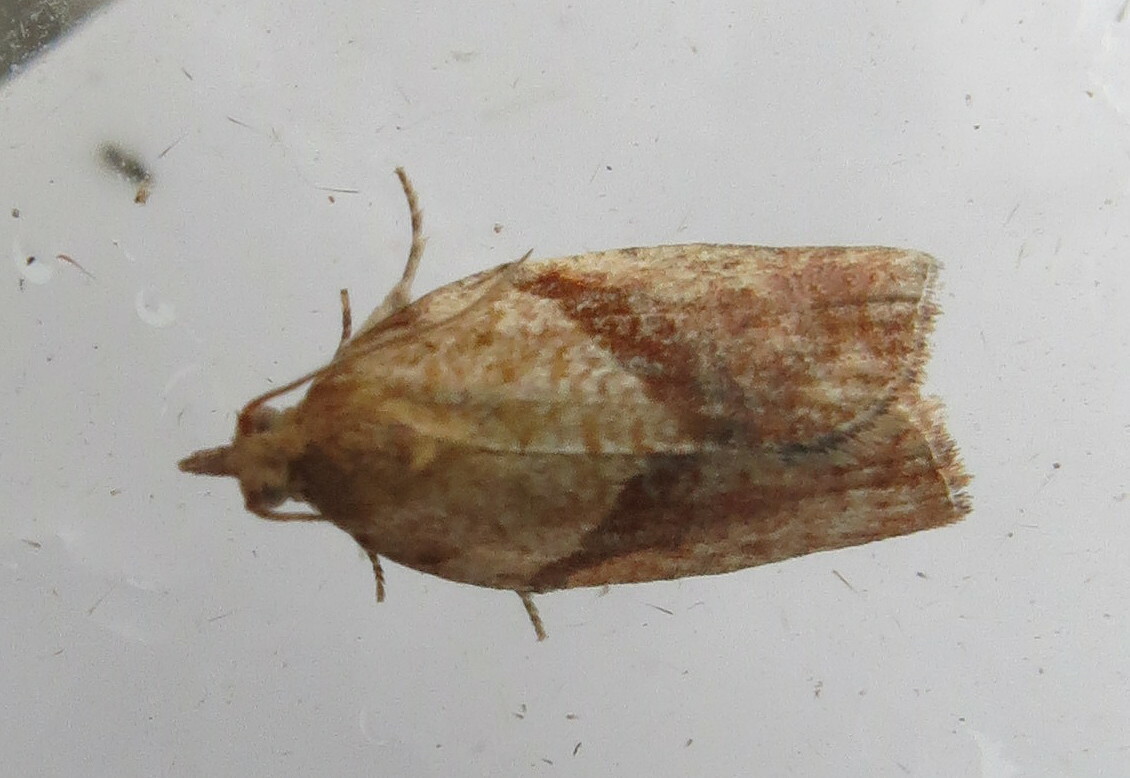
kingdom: Animalia
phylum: Arthropoda
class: Insecta
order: Lepidoptera
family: Tortricidae
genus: Epiphyas
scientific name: Epiphyas postvittana
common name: Light brown apple moth
